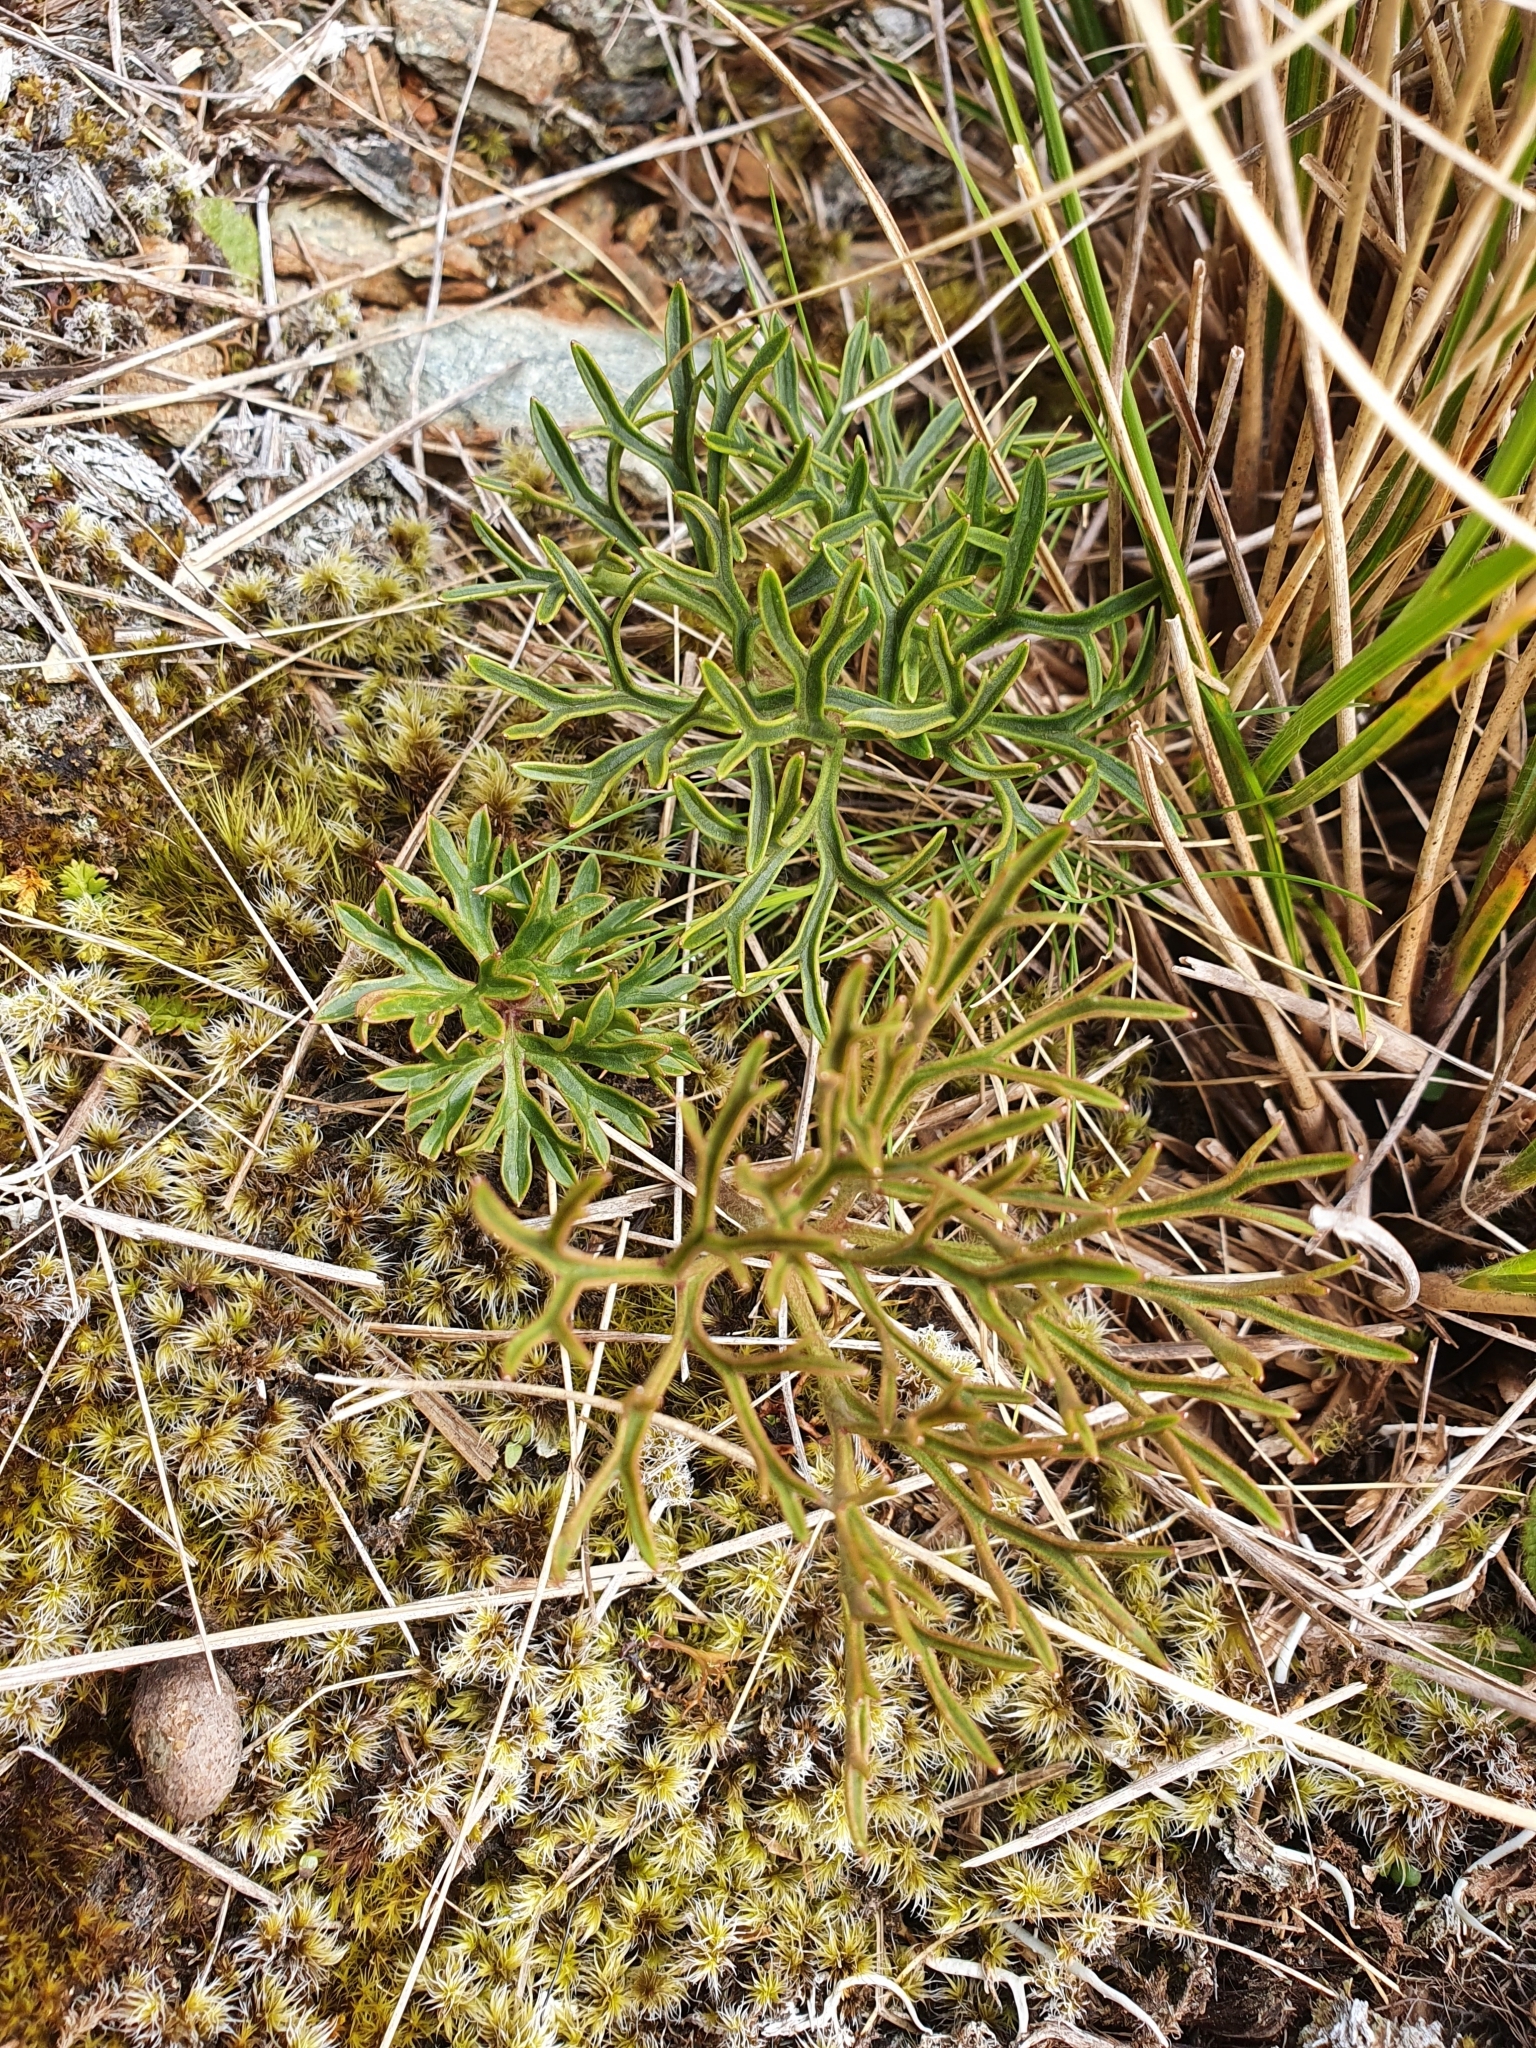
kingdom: Plantae
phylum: Tracheophyta
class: Magnoliopsida
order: Ranunculales
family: Ranunculaceae
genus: Ranunculus
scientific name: Ranunculus verticillatus
